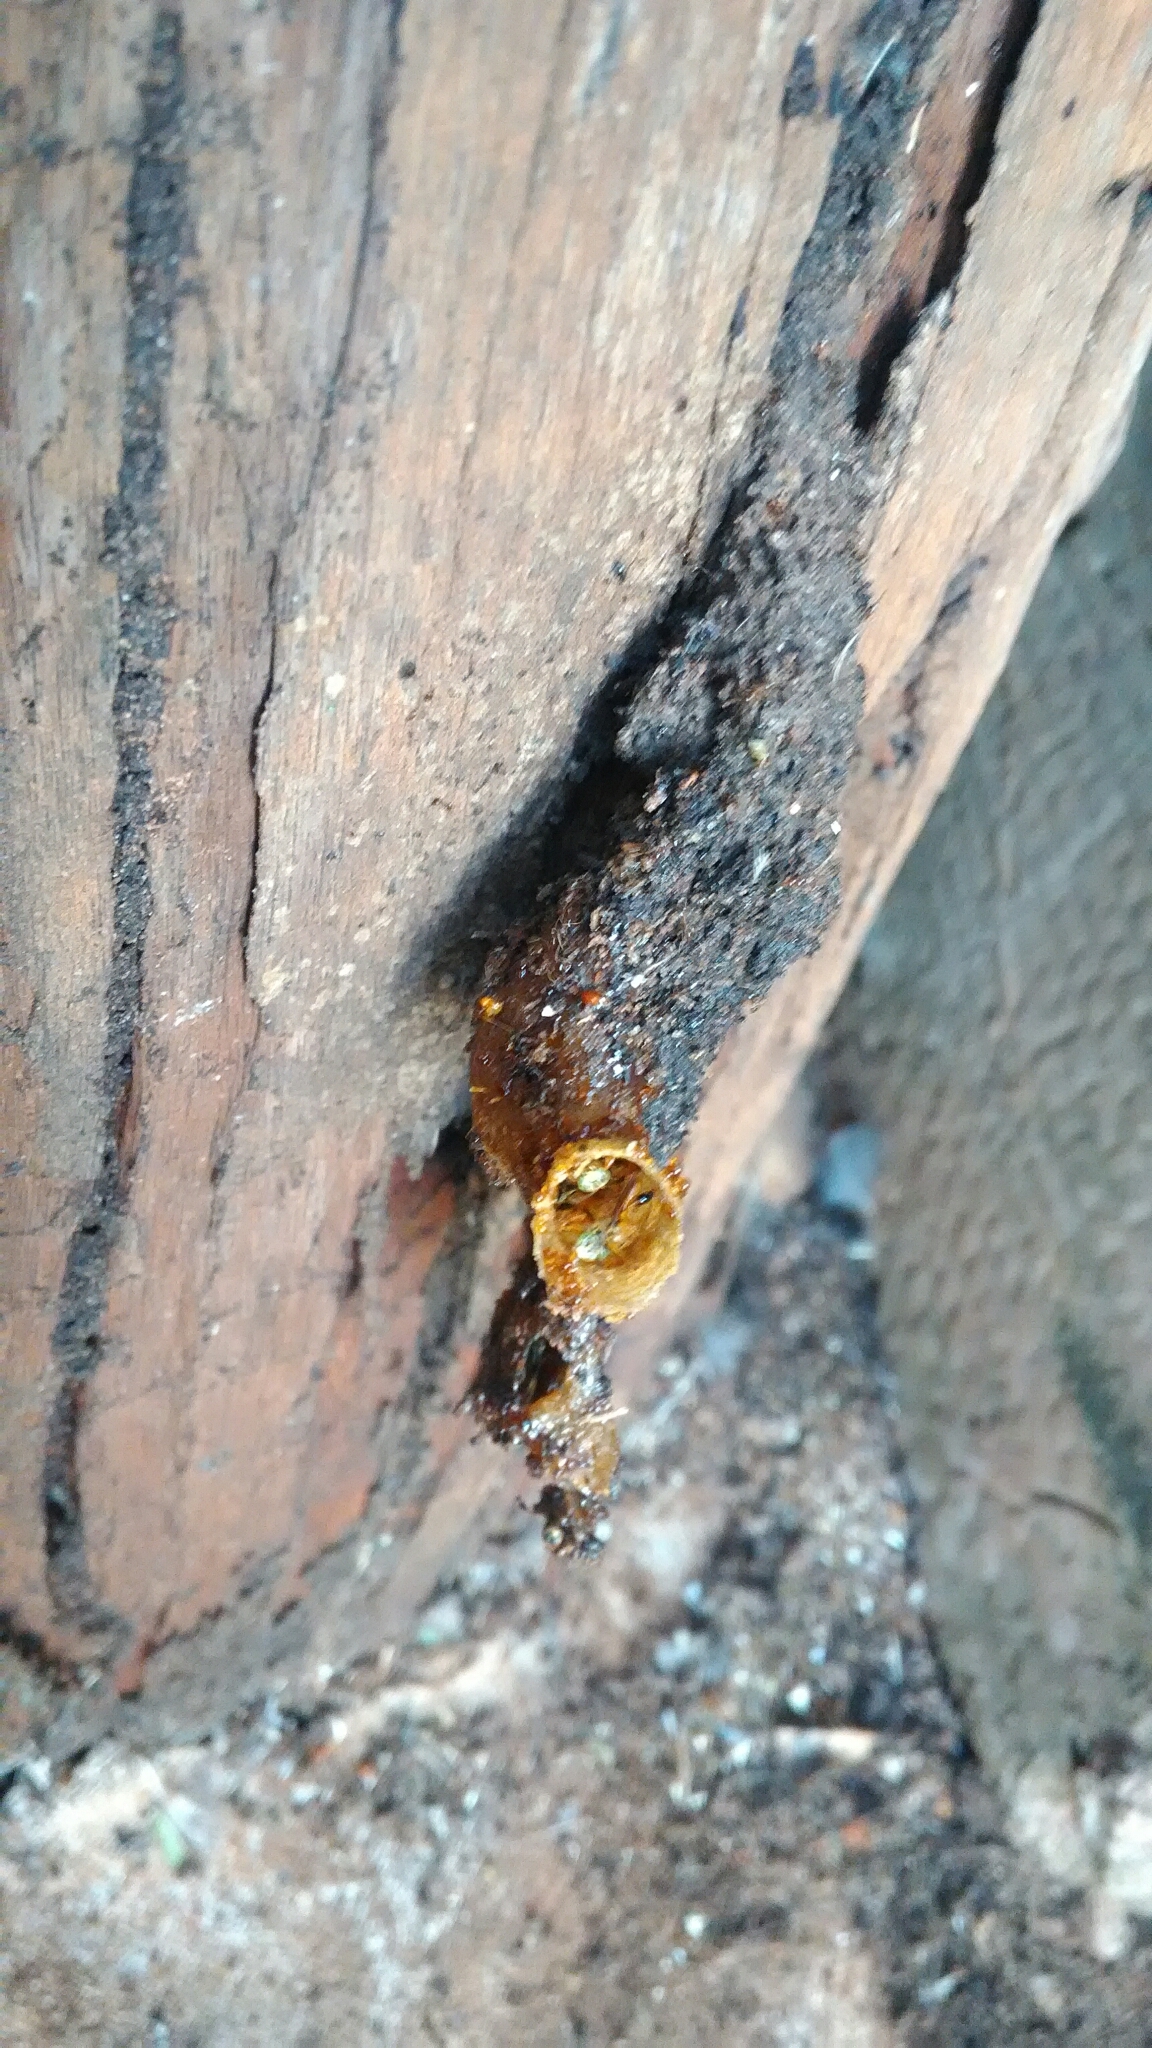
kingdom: Animalia
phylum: Arthropoda
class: Insecta
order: Hymenoptera
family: Apidae
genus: Tetragonisca
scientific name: Tetragonisca angustula
